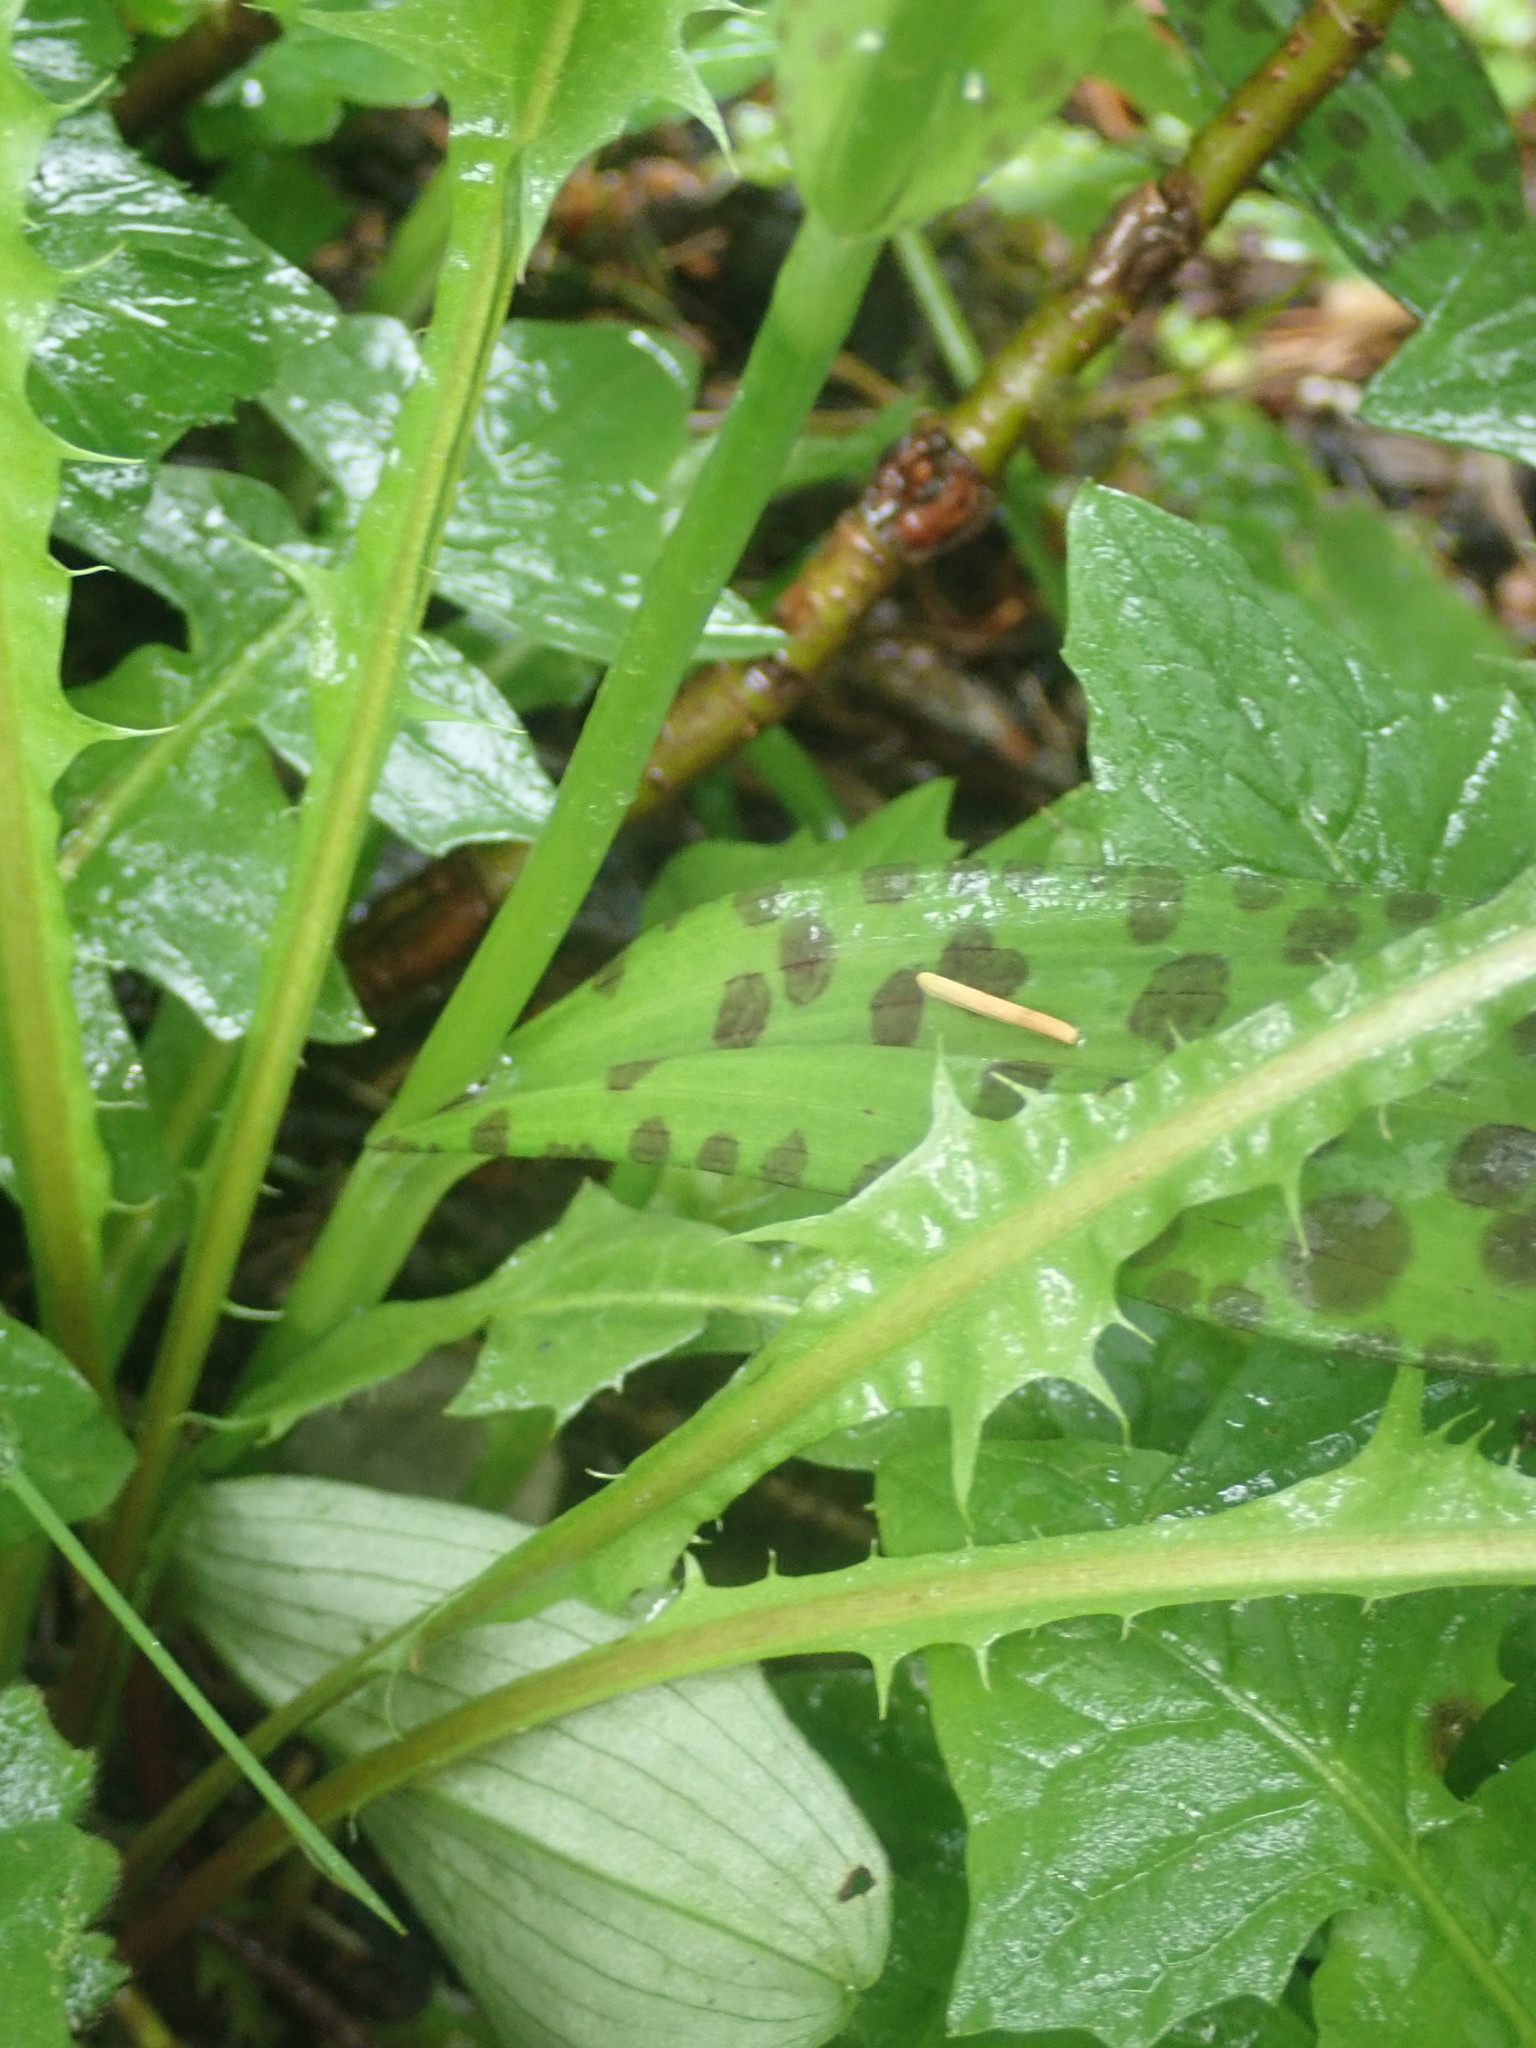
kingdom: Plantae
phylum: Tracheophyta
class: Liliopsida
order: Asparagales
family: Orchidaceae
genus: Dactylorhiza
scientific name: Dactylorhiza maculata
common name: Heath spotted-orchid
